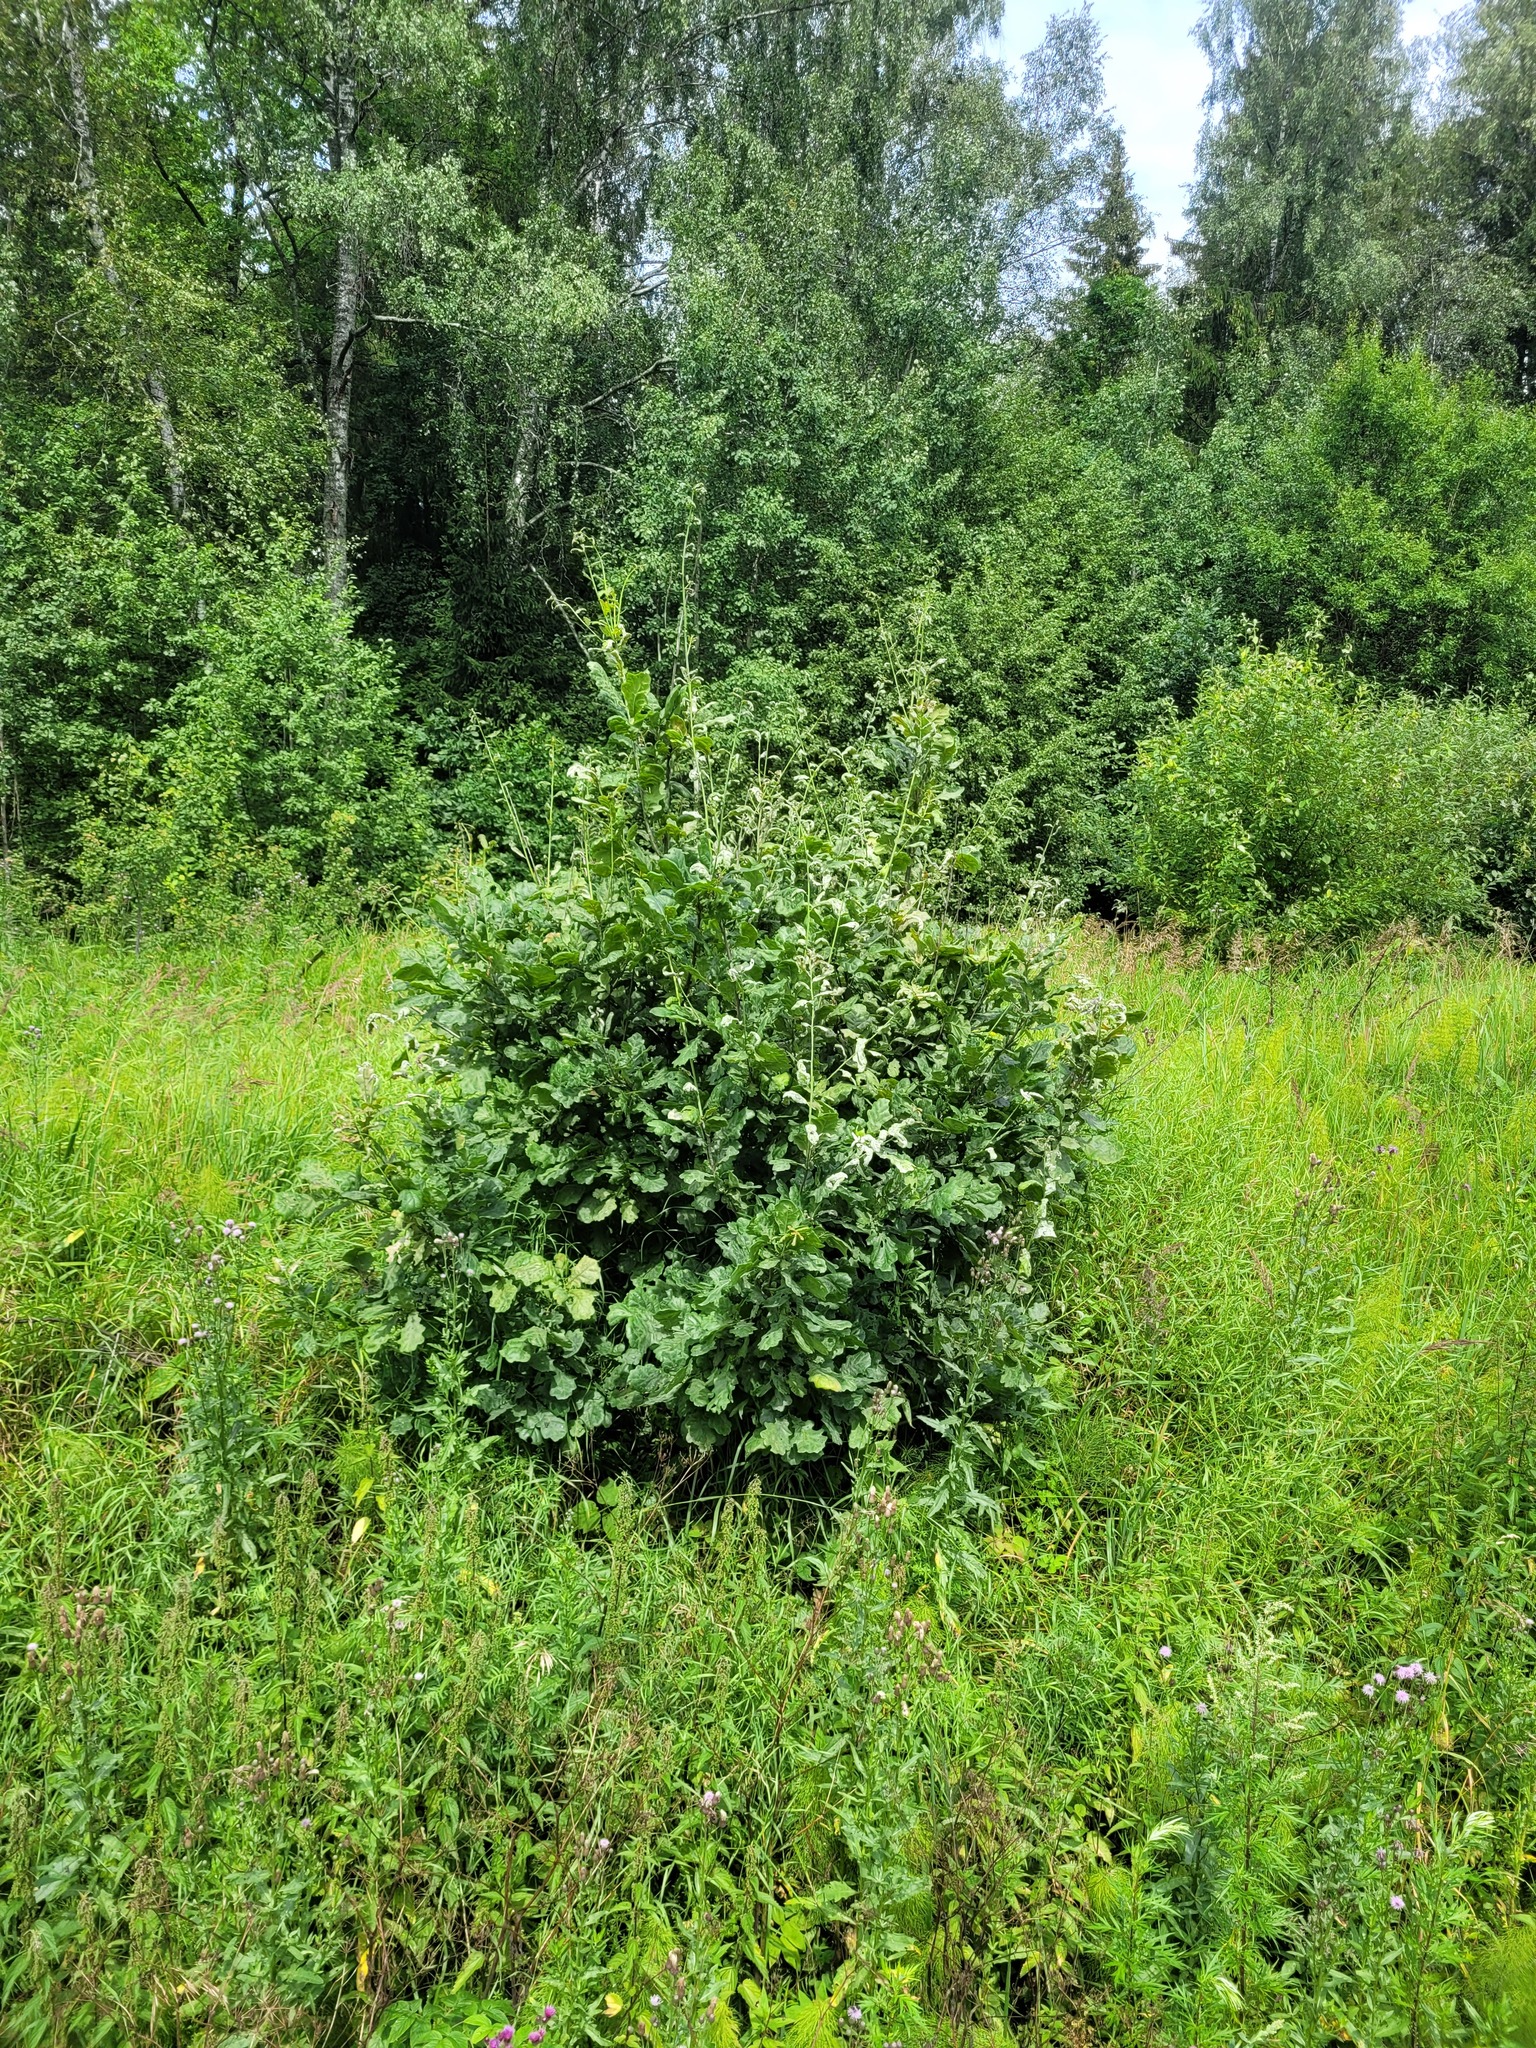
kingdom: Plantae
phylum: Tracheophyta
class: Magnoliopsida
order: Fagales
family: Fagaceae
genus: Quercus
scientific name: Quercus robur
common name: Pedunculate oak
